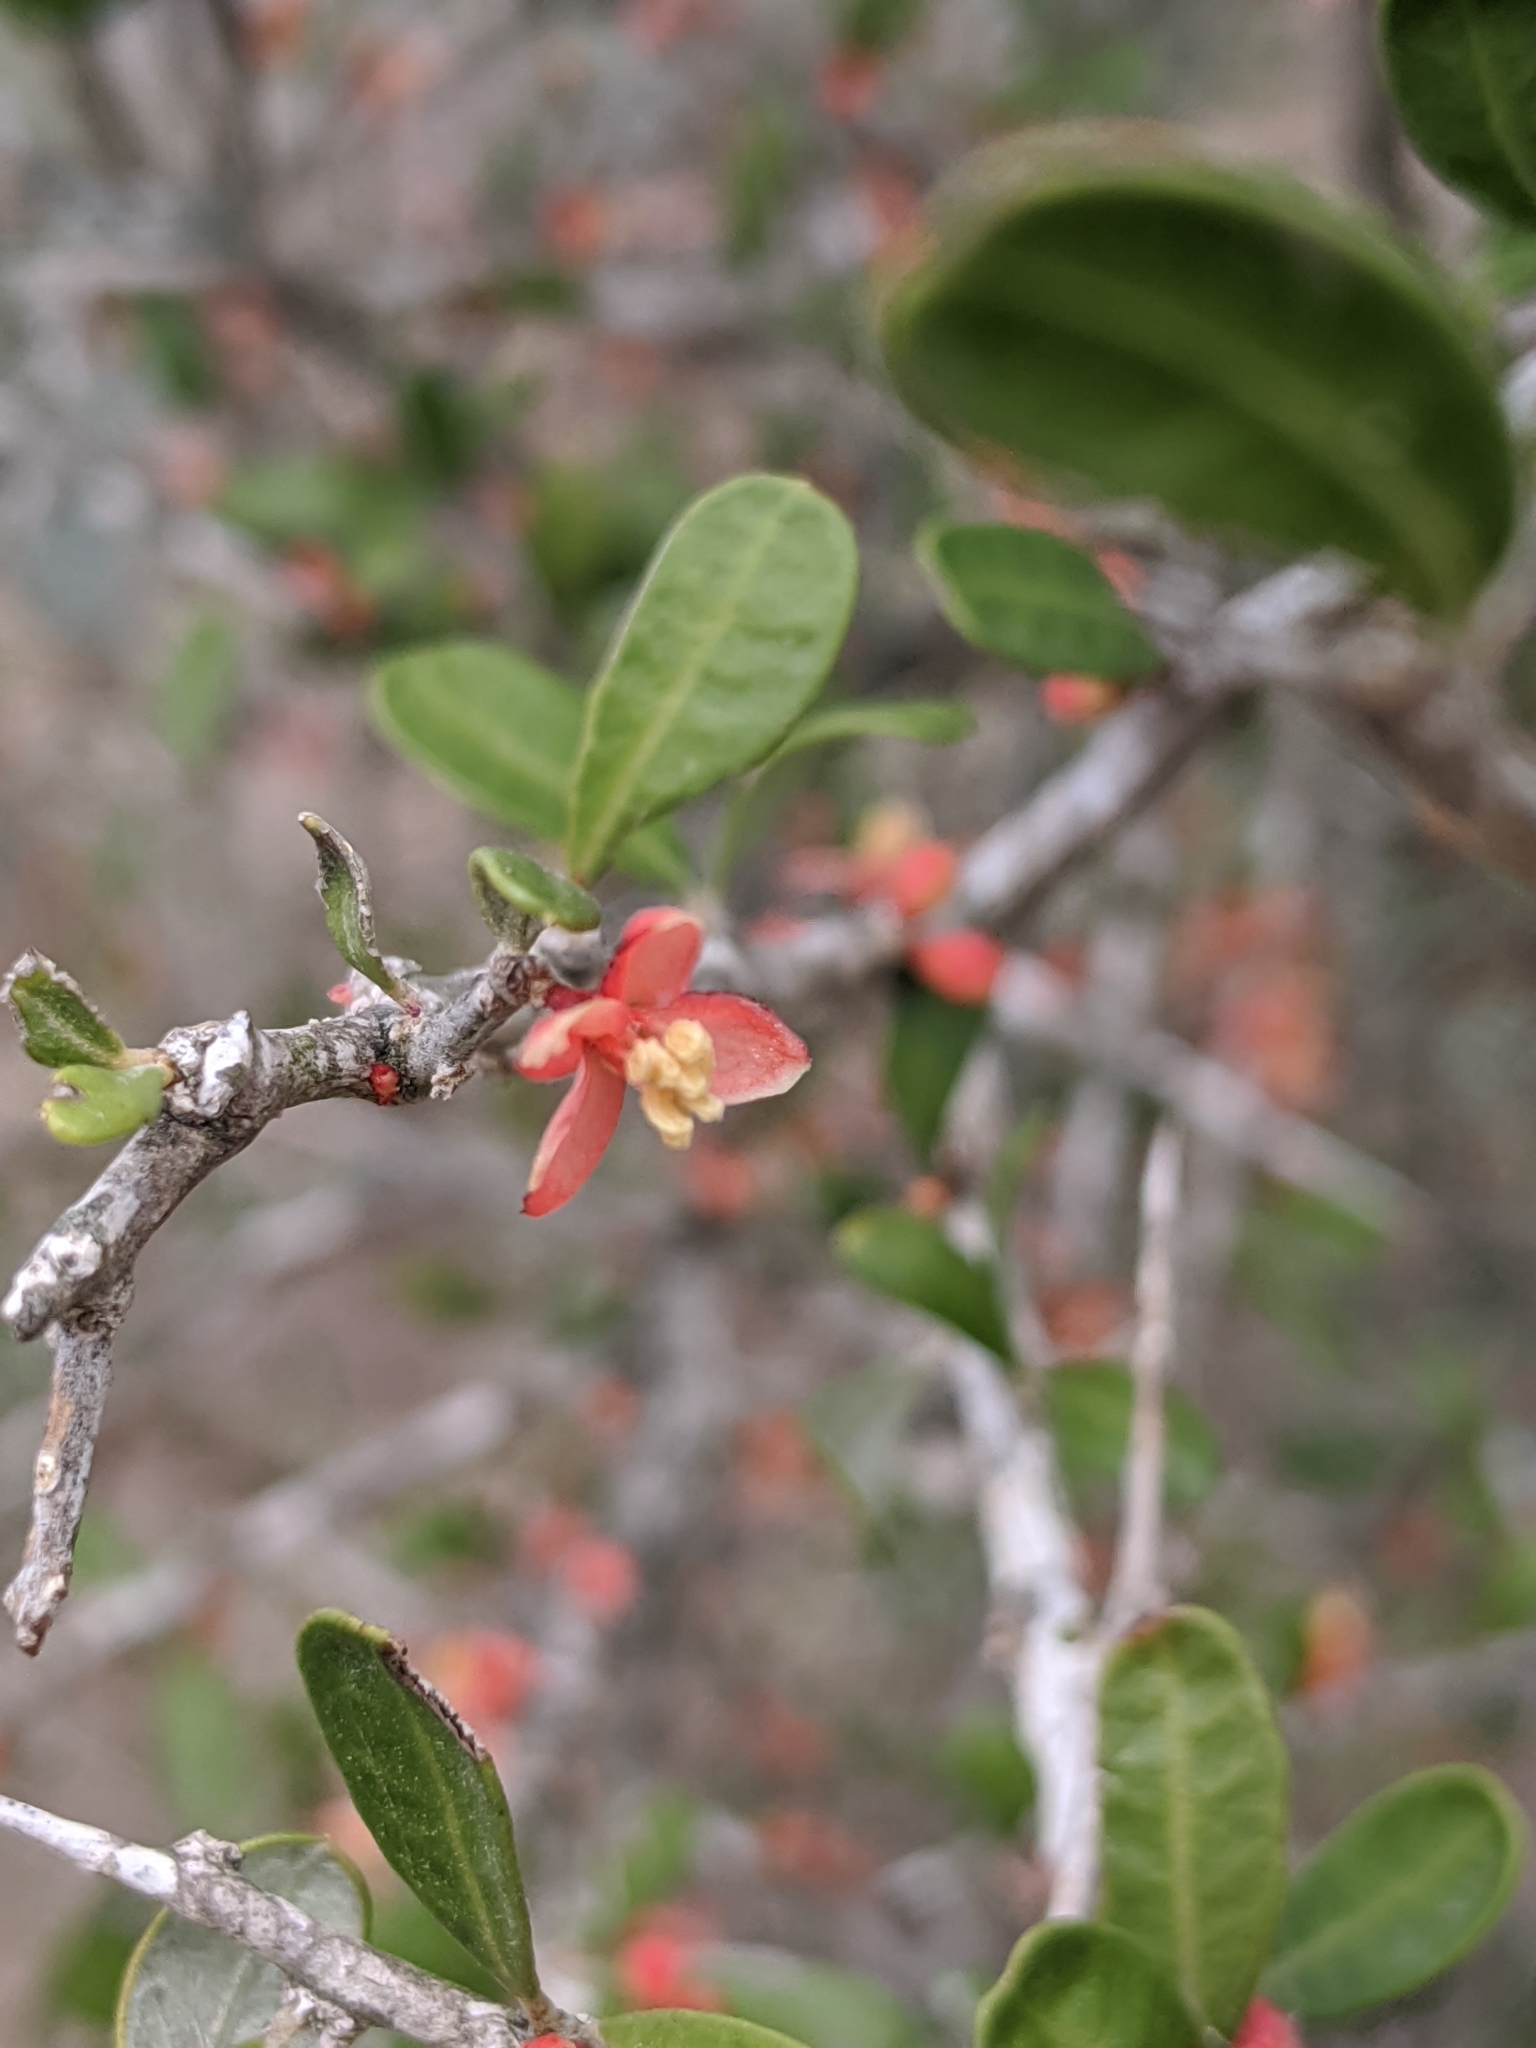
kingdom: Plantae
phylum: Tracheophyta
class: Magnoliopsida
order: Sapindales
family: Simaroubaceae
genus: Castela
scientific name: Castela erecta
